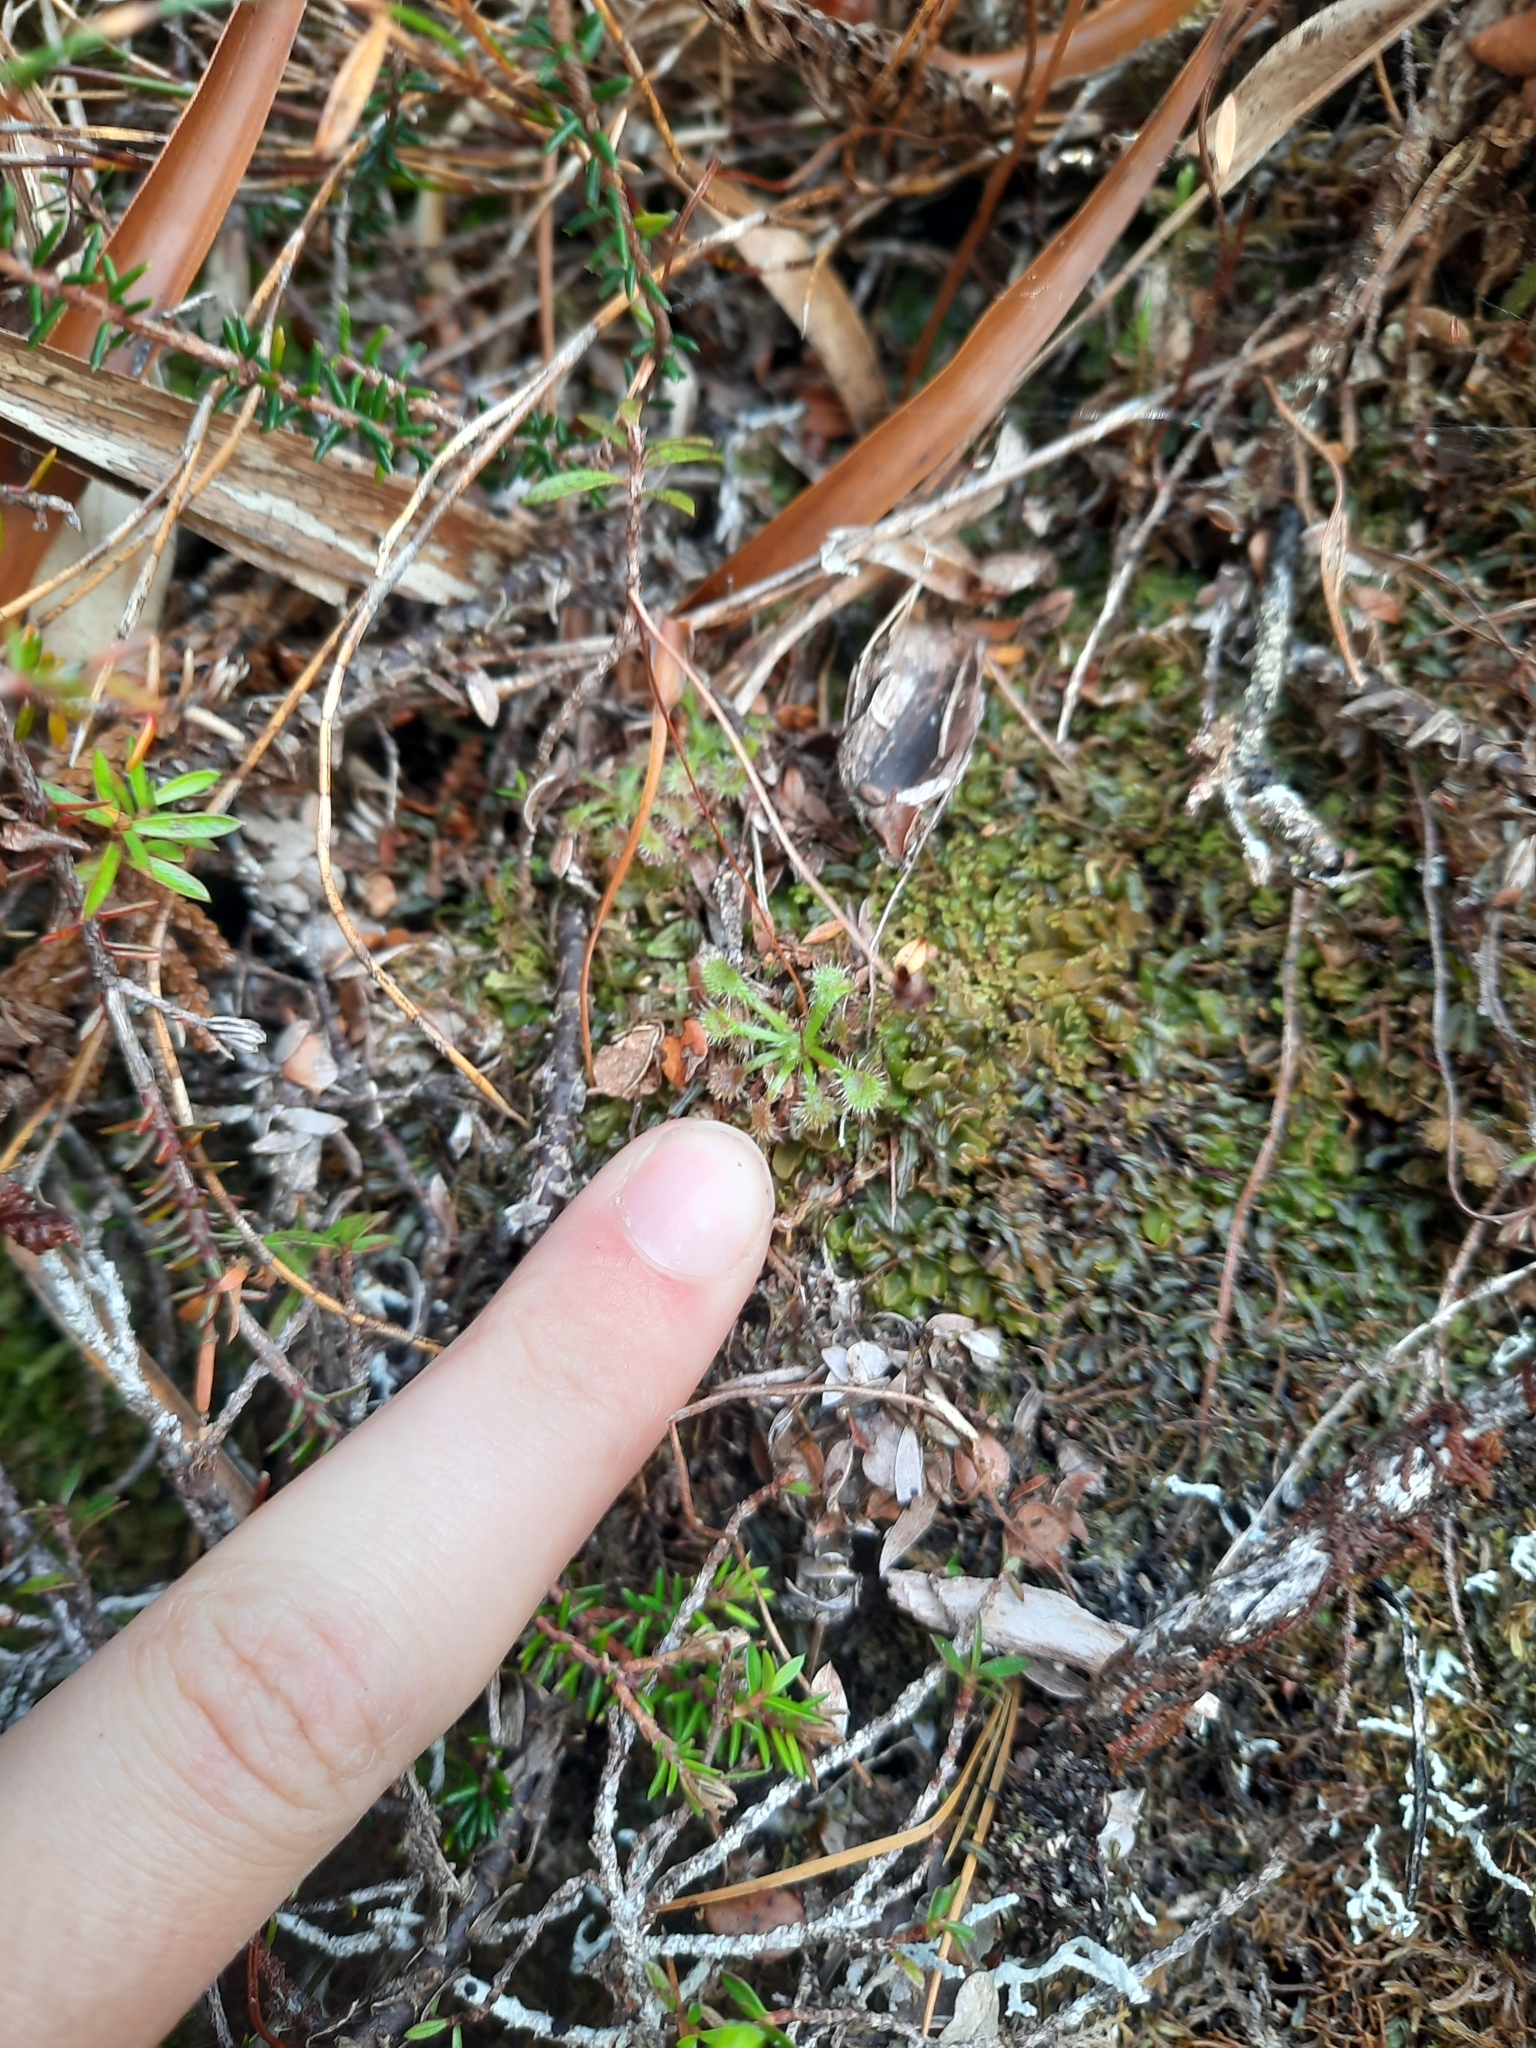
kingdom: Plantae
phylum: Tracheophyta
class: Magnoliopsida
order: Caryophyllales
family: Droseraceae
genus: Drosera
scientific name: Drosera spatulata
